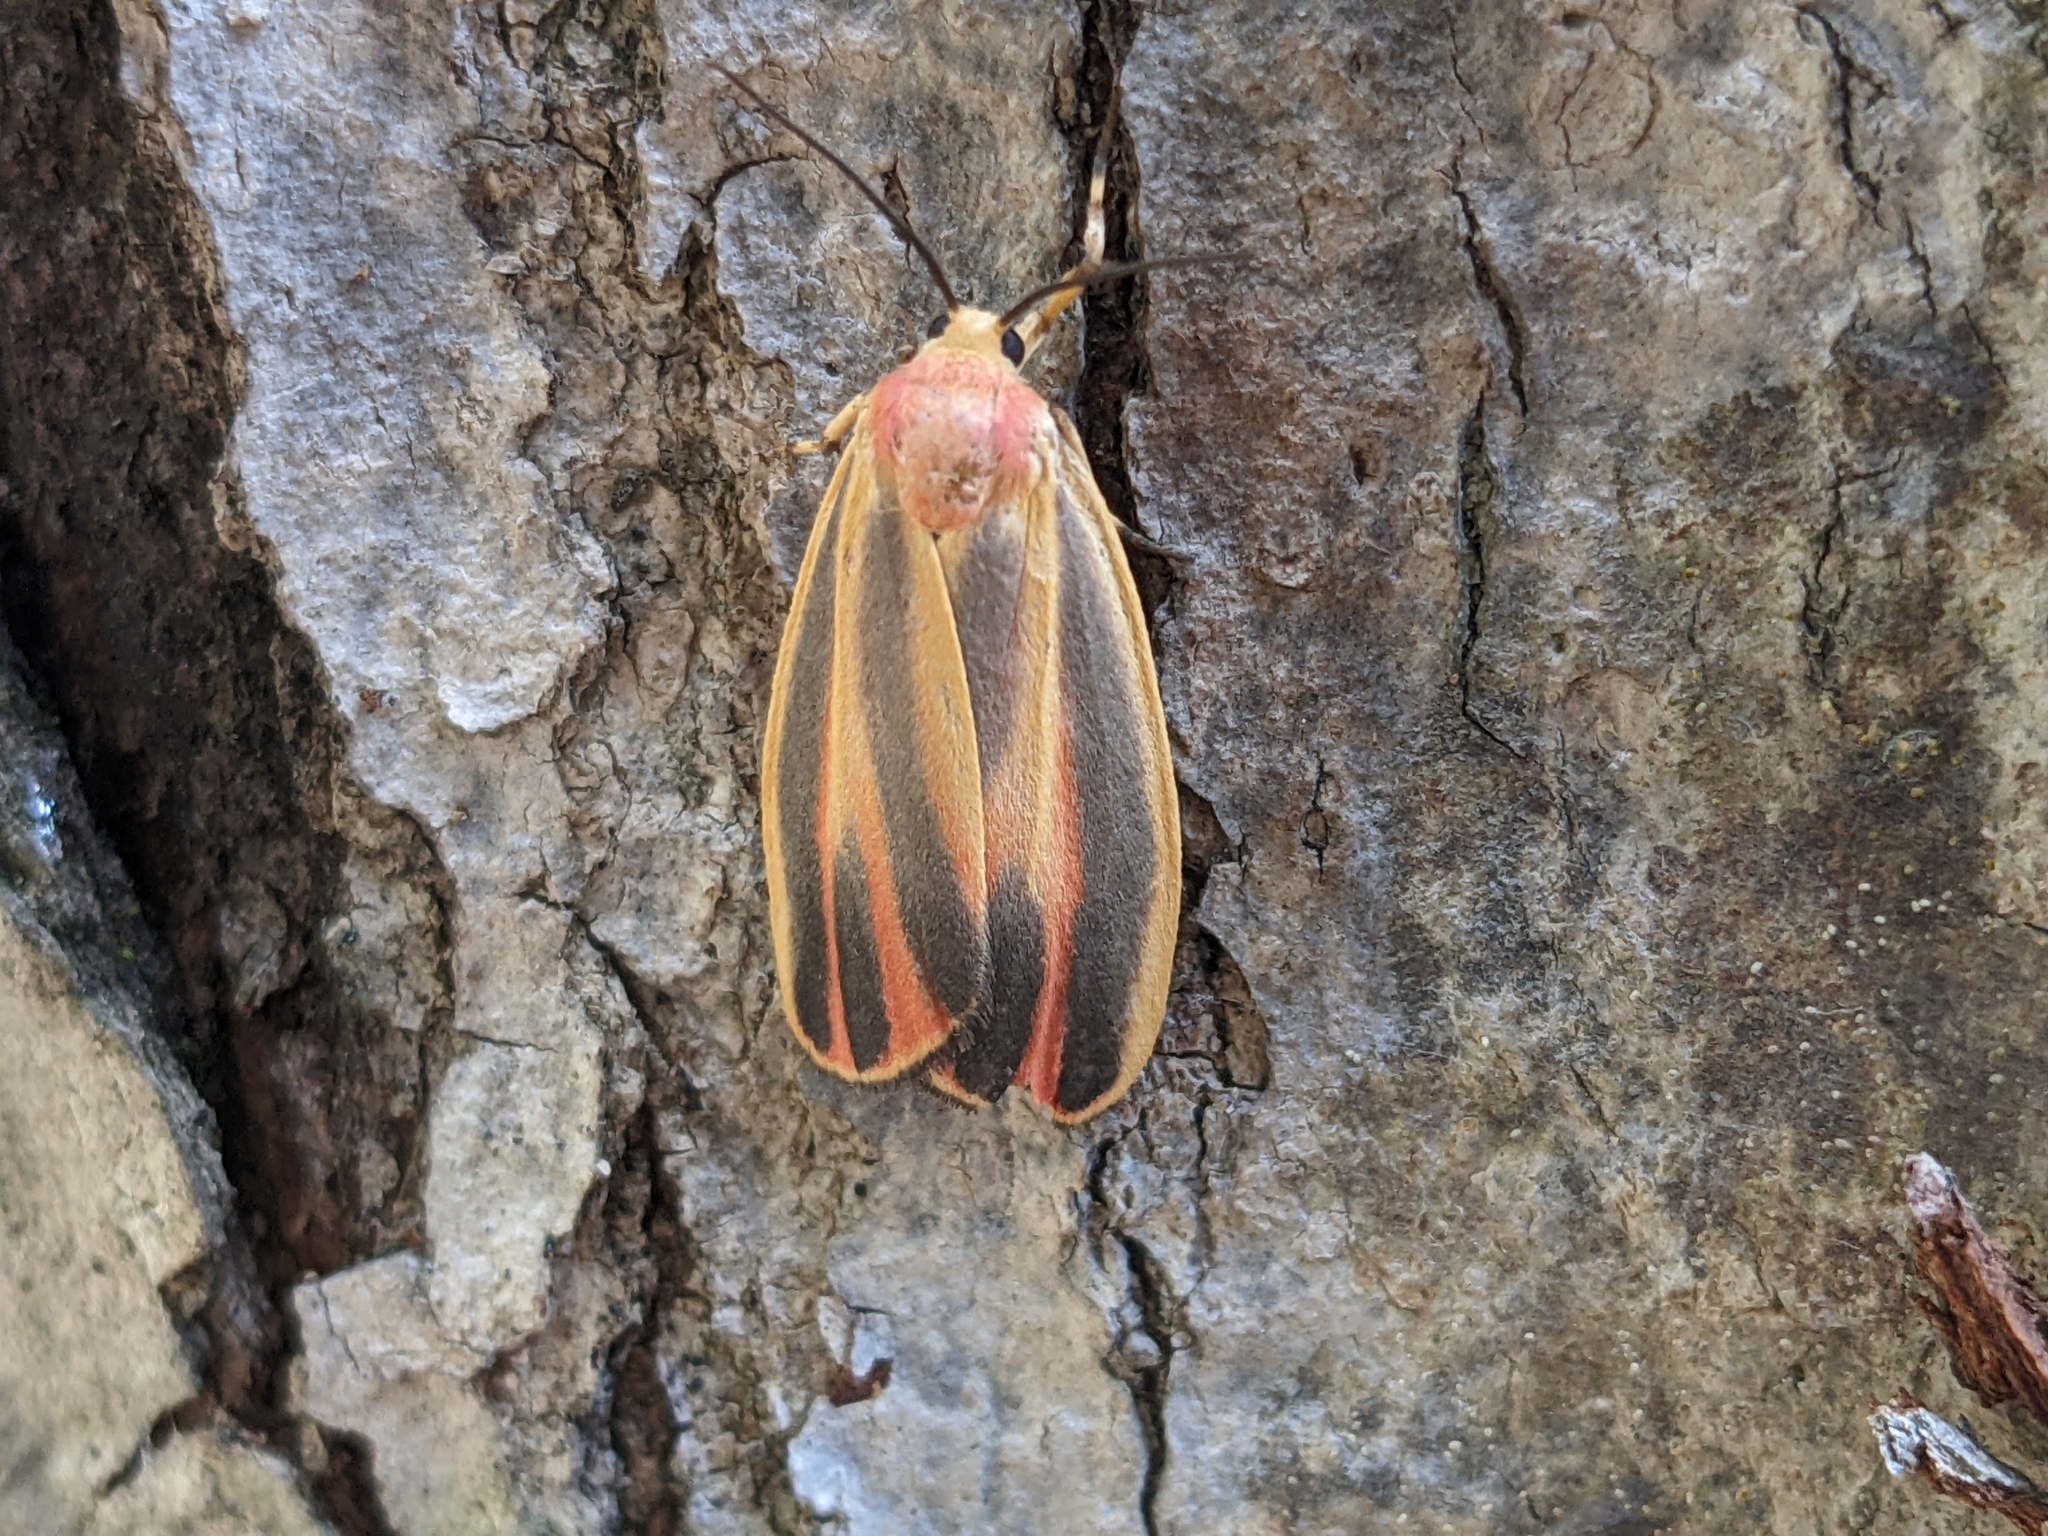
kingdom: Animalia
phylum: Arthropoda
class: Insecta
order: Lepidoptera
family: Erebidae
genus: Hypoprepia
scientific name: Hypoprepia fucosa
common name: Painted lichen moth
